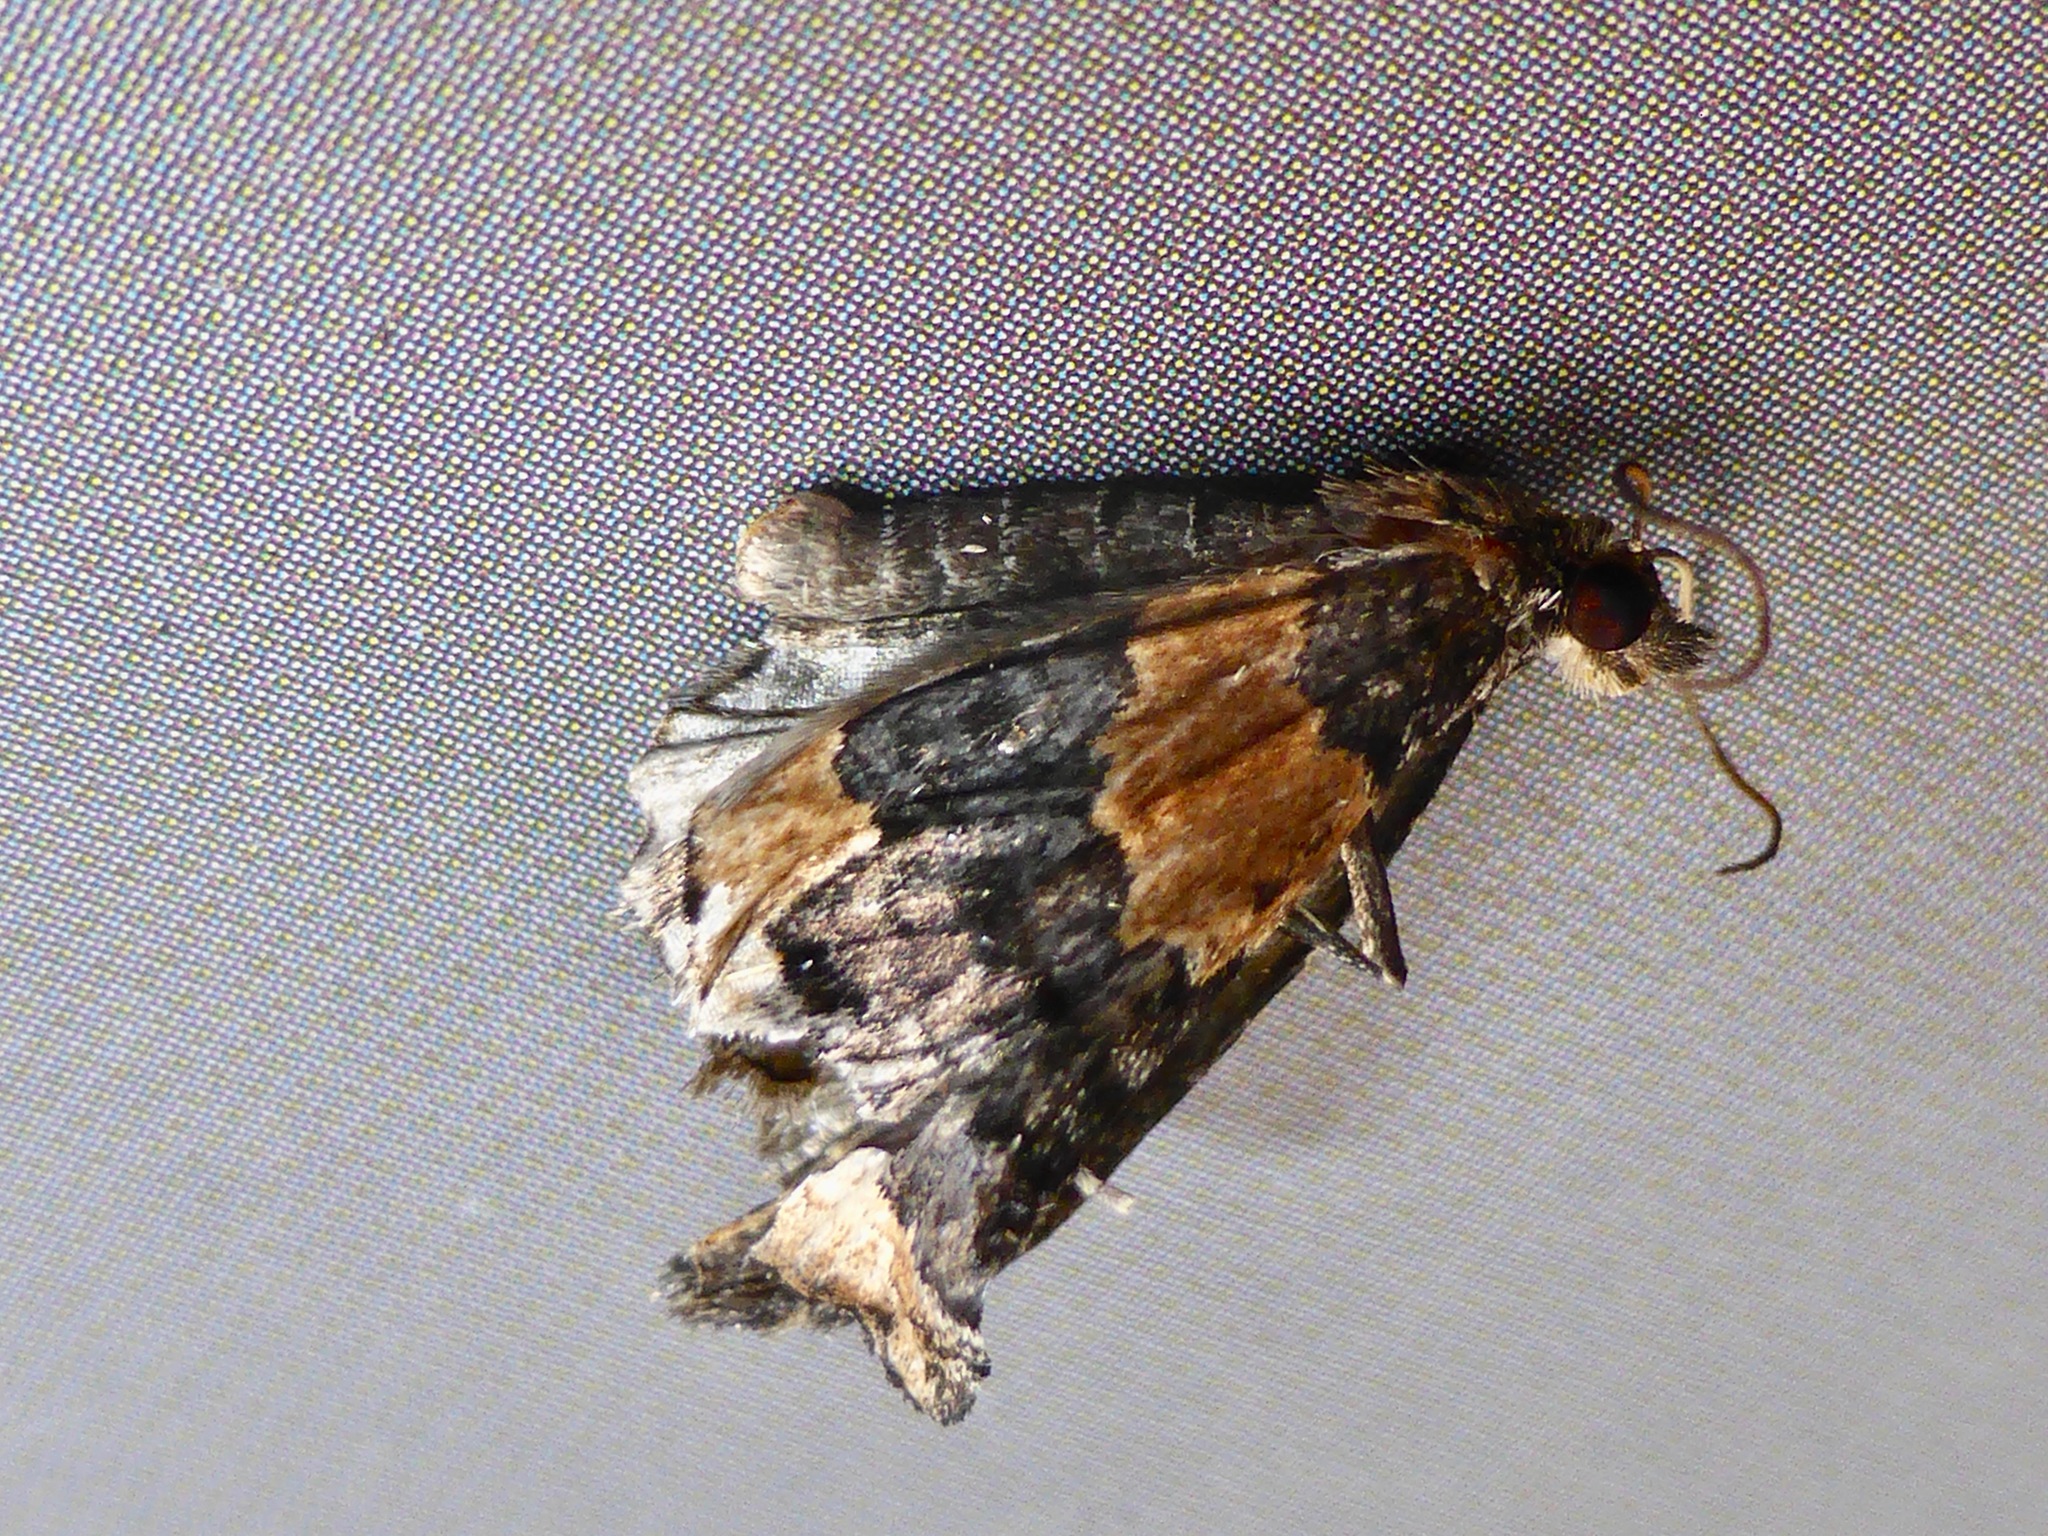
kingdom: Animalia
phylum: Arthropoda
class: Insecta
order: Lepidoptera
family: Geometridae
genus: Hydriomena
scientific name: Hydriomena hemizona
